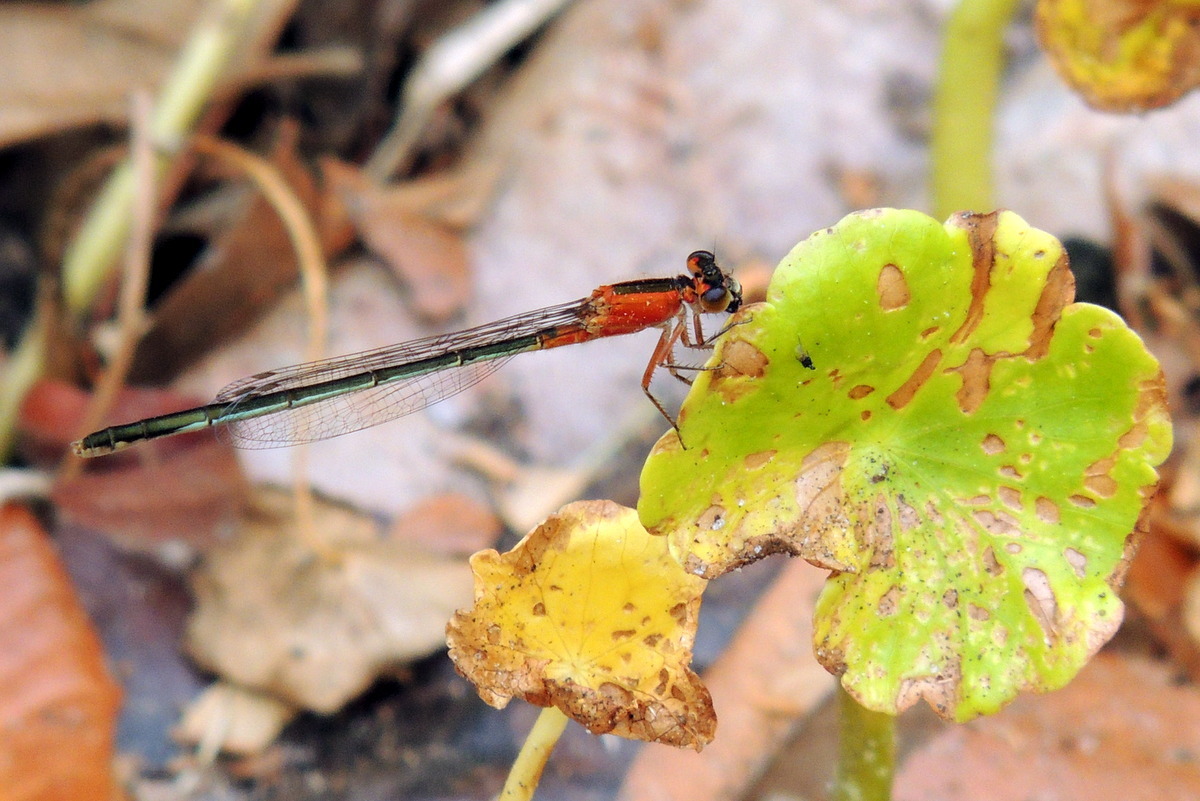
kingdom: Animalia
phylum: Arthropoda
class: Insecta
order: Odonata
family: Coenagrionidae
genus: Ischnura
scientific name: Ischnura ramburii
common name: Rambur's forktail
